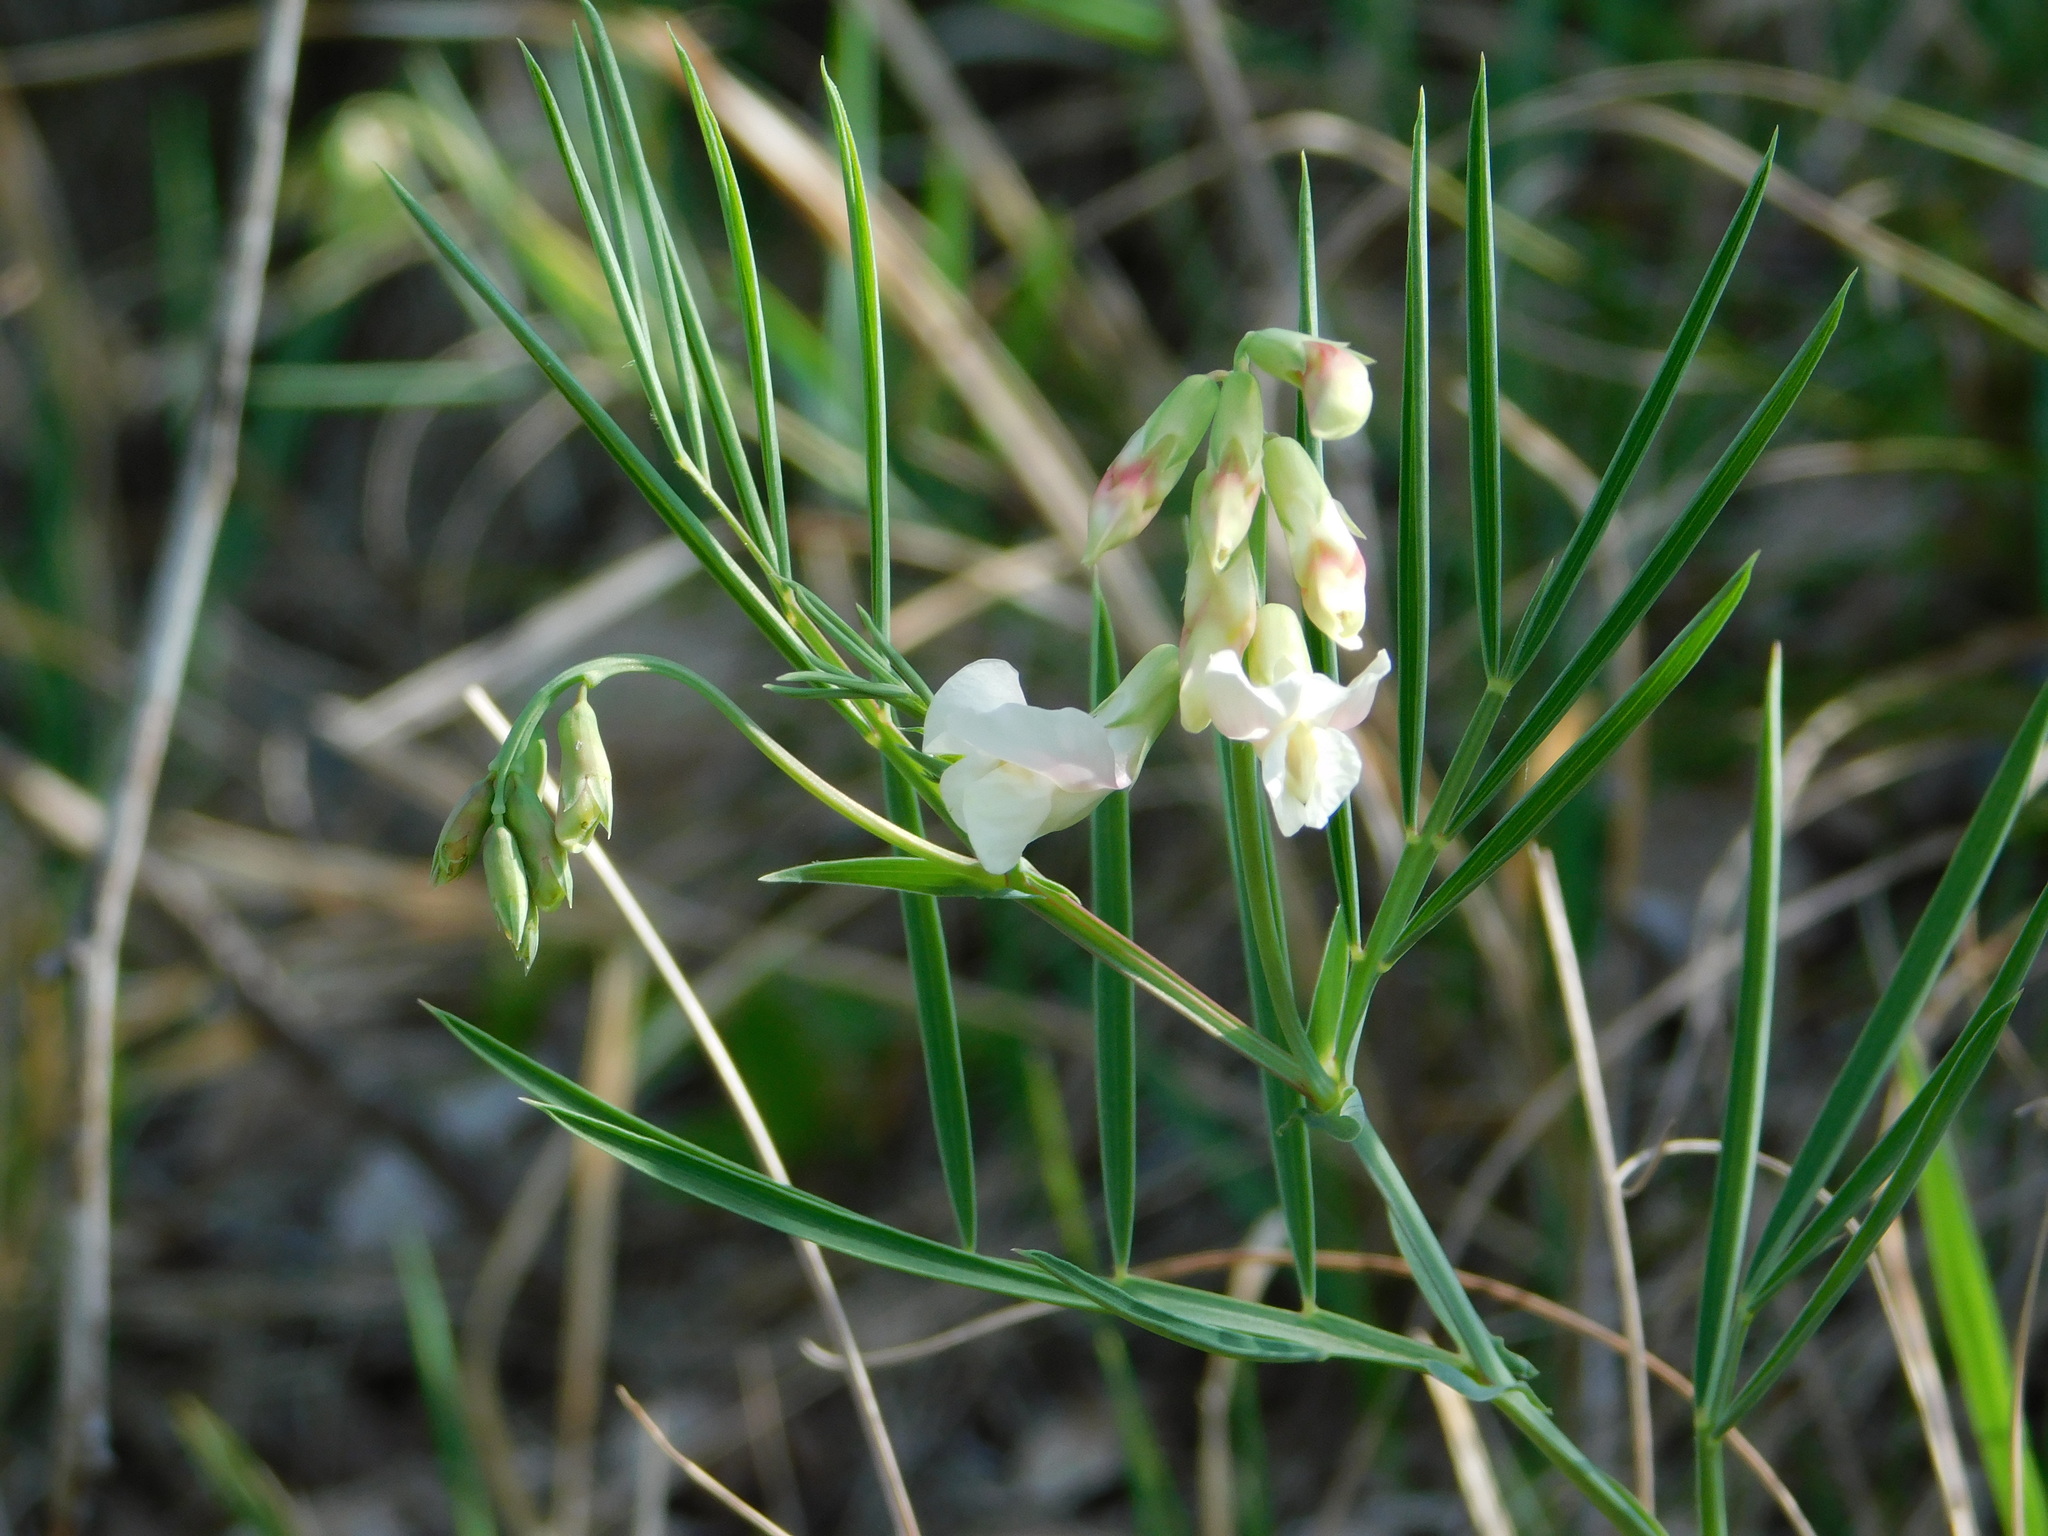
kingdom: Plantae
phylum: Tracheophyta
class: Magnoliopsida
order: Fabales
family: Fabaceae
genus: Lathyrus
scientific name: Lathyrus pannonicus
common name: Pea
